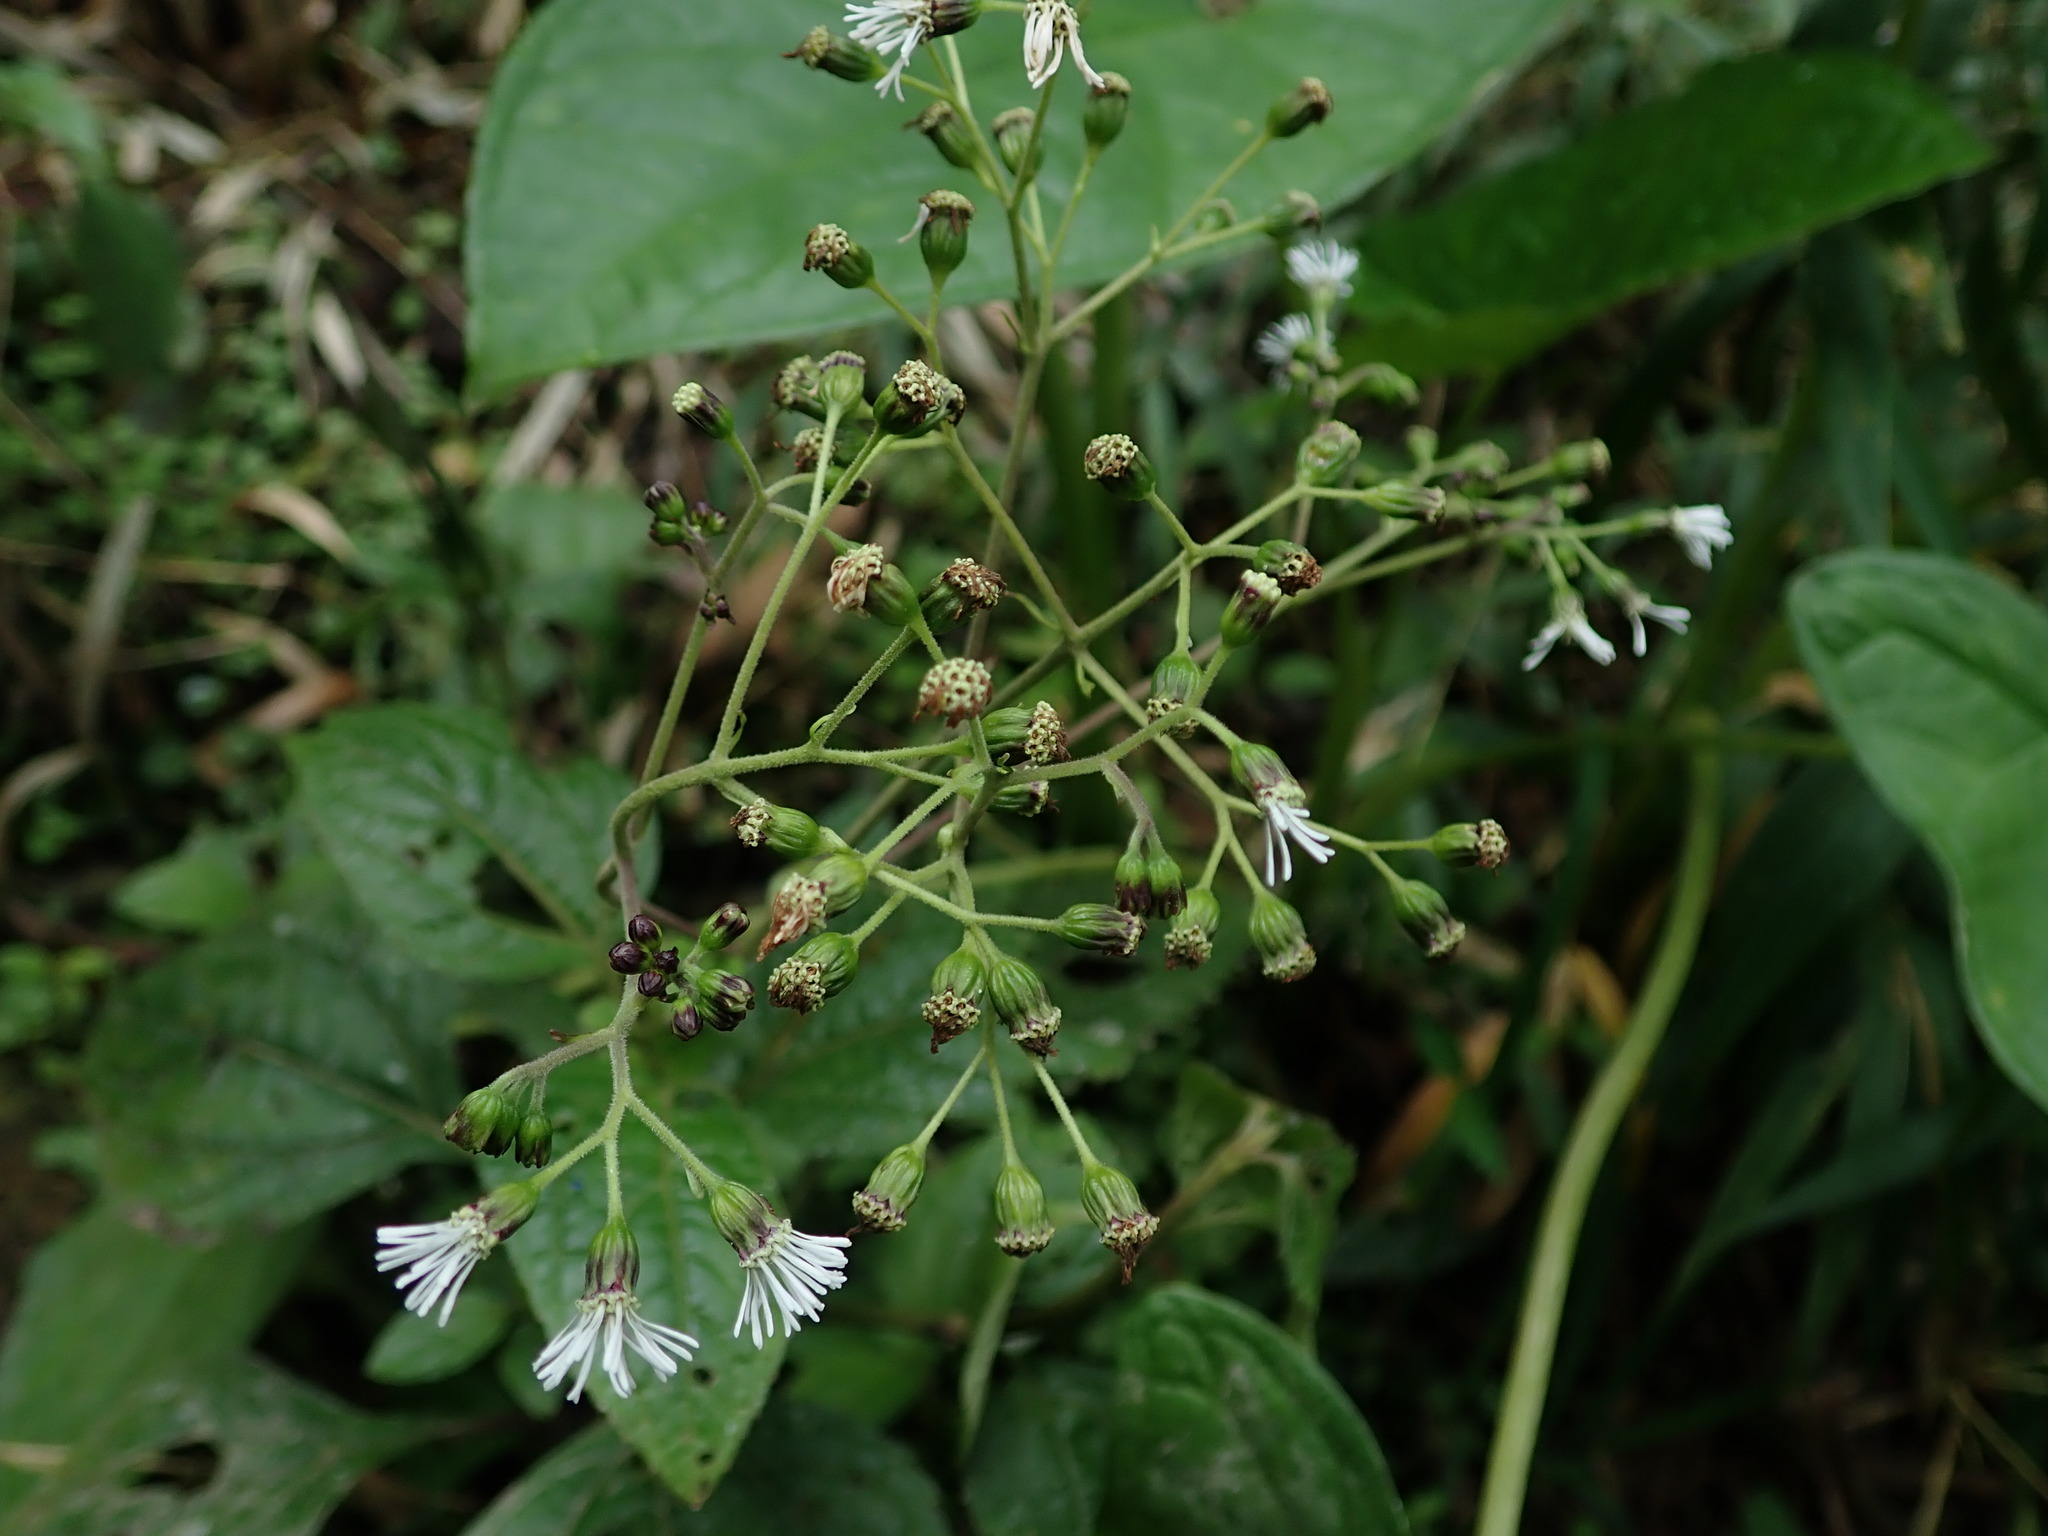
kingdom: Plantae
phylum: Tracheophyta
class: Magnoliopsida
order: Asterales
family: Asteraceae
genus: Adenostemma
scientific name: Adenostemma harlingii
